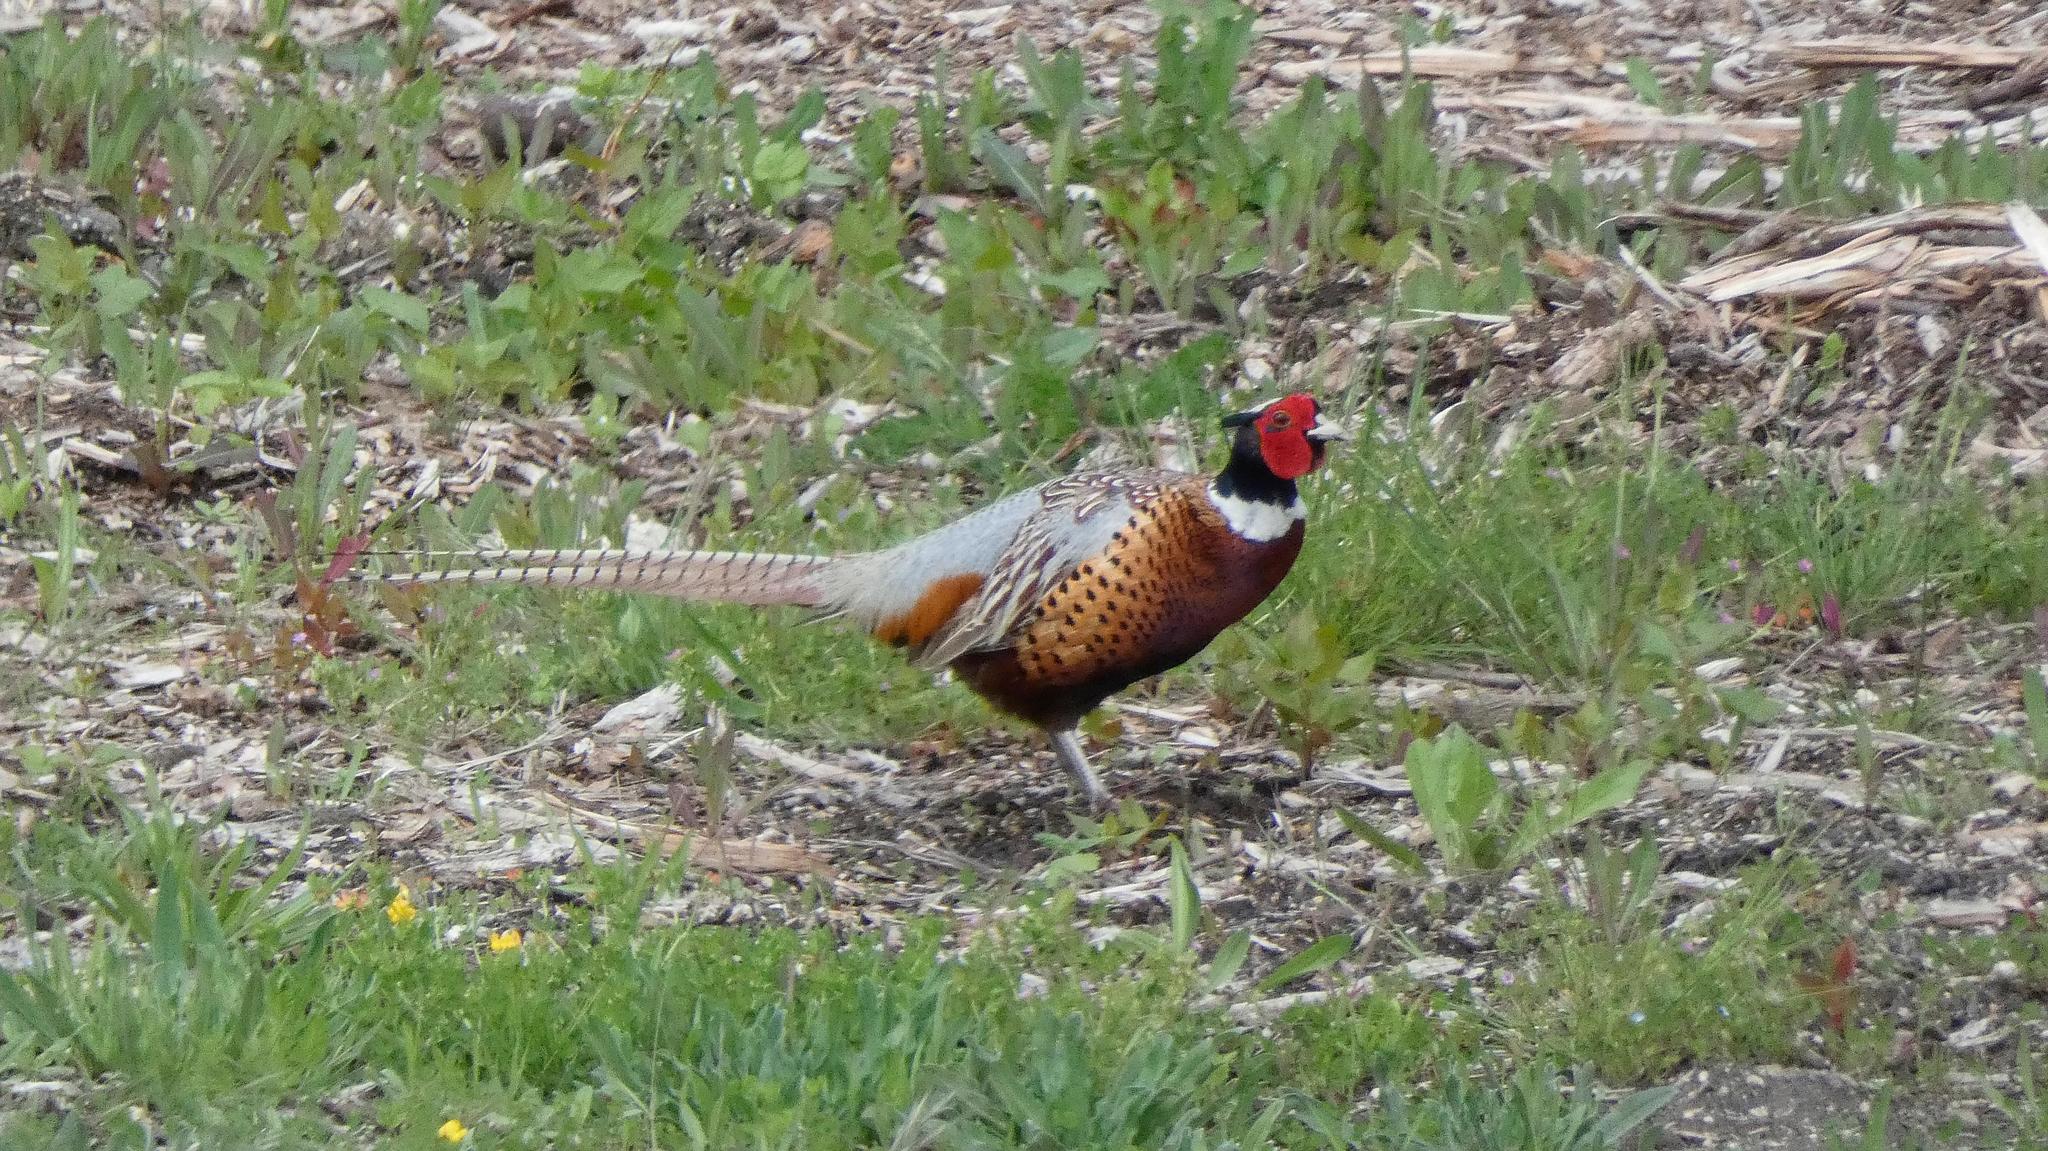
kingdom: Animalia
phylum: Chordata
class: Aves
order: Galliformes
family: Phasianidae
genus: Phasianus
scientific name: Phasianus colchicus
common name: Common pheasant
